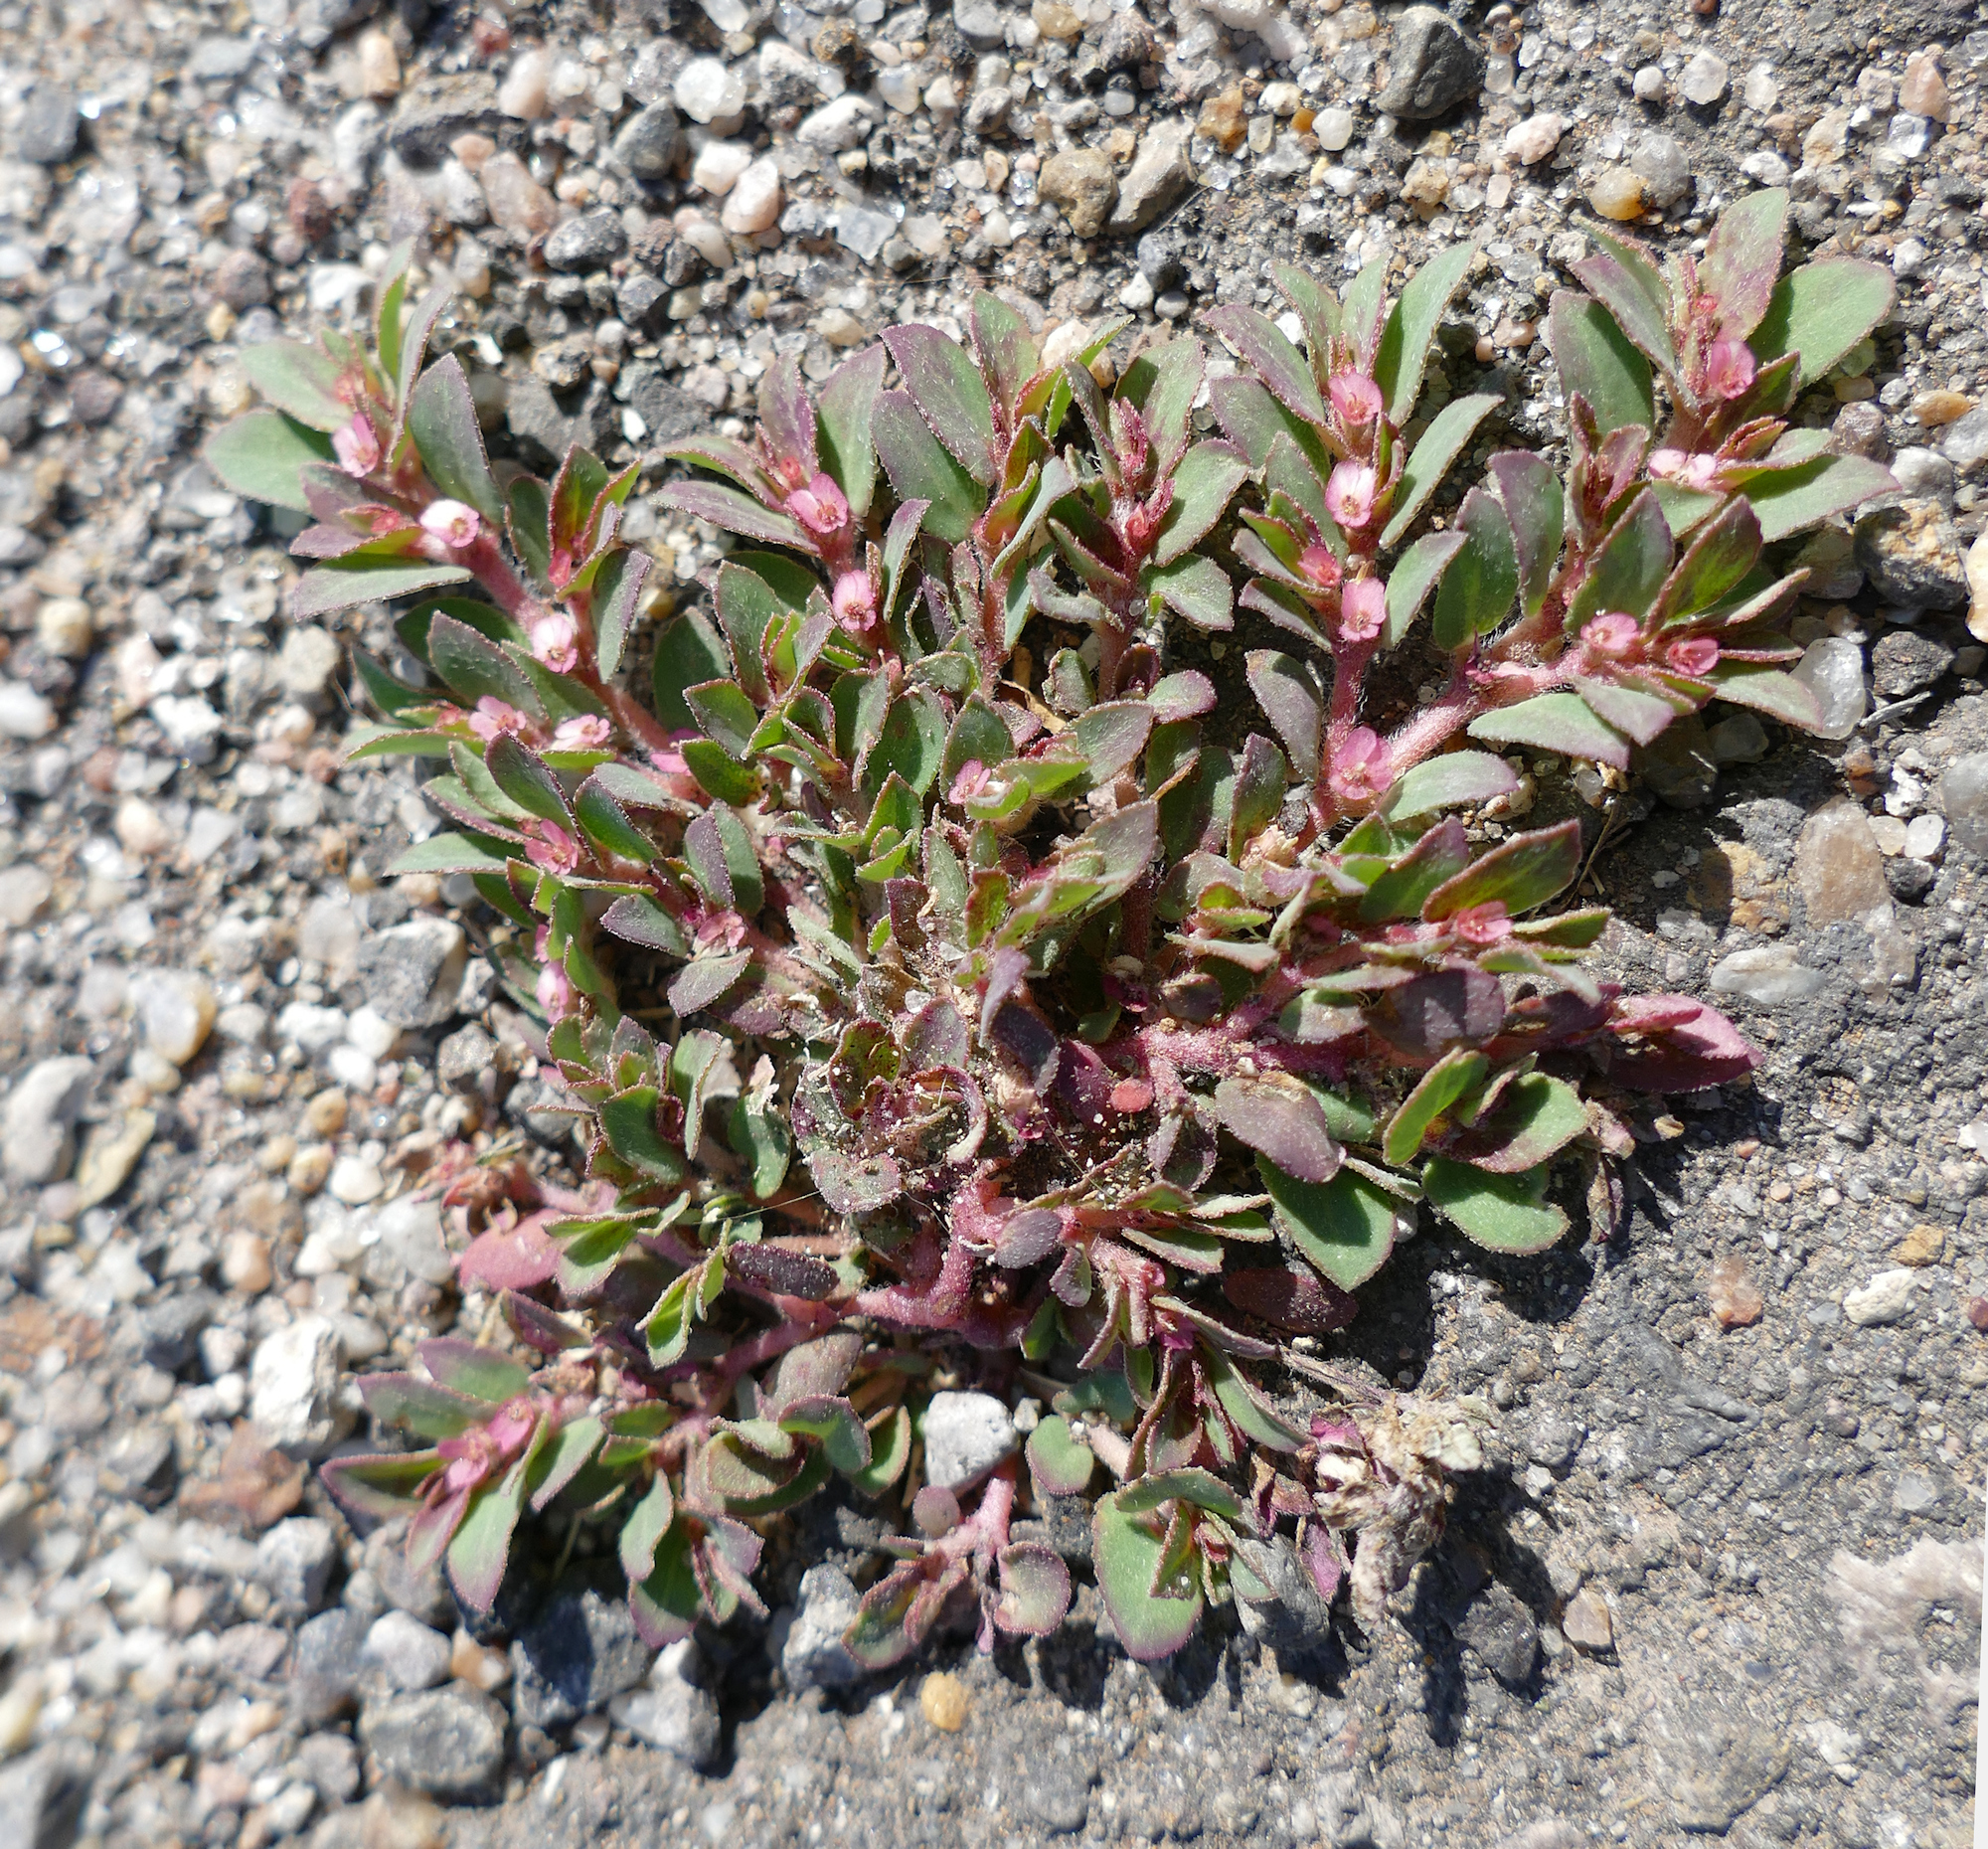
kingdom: Plantae
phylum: Tracheophyta
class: Magnoliopsida
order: Malpighiales
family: Euphorbiaceae
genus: Euphorbia
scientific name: Euphorbia indivisa
